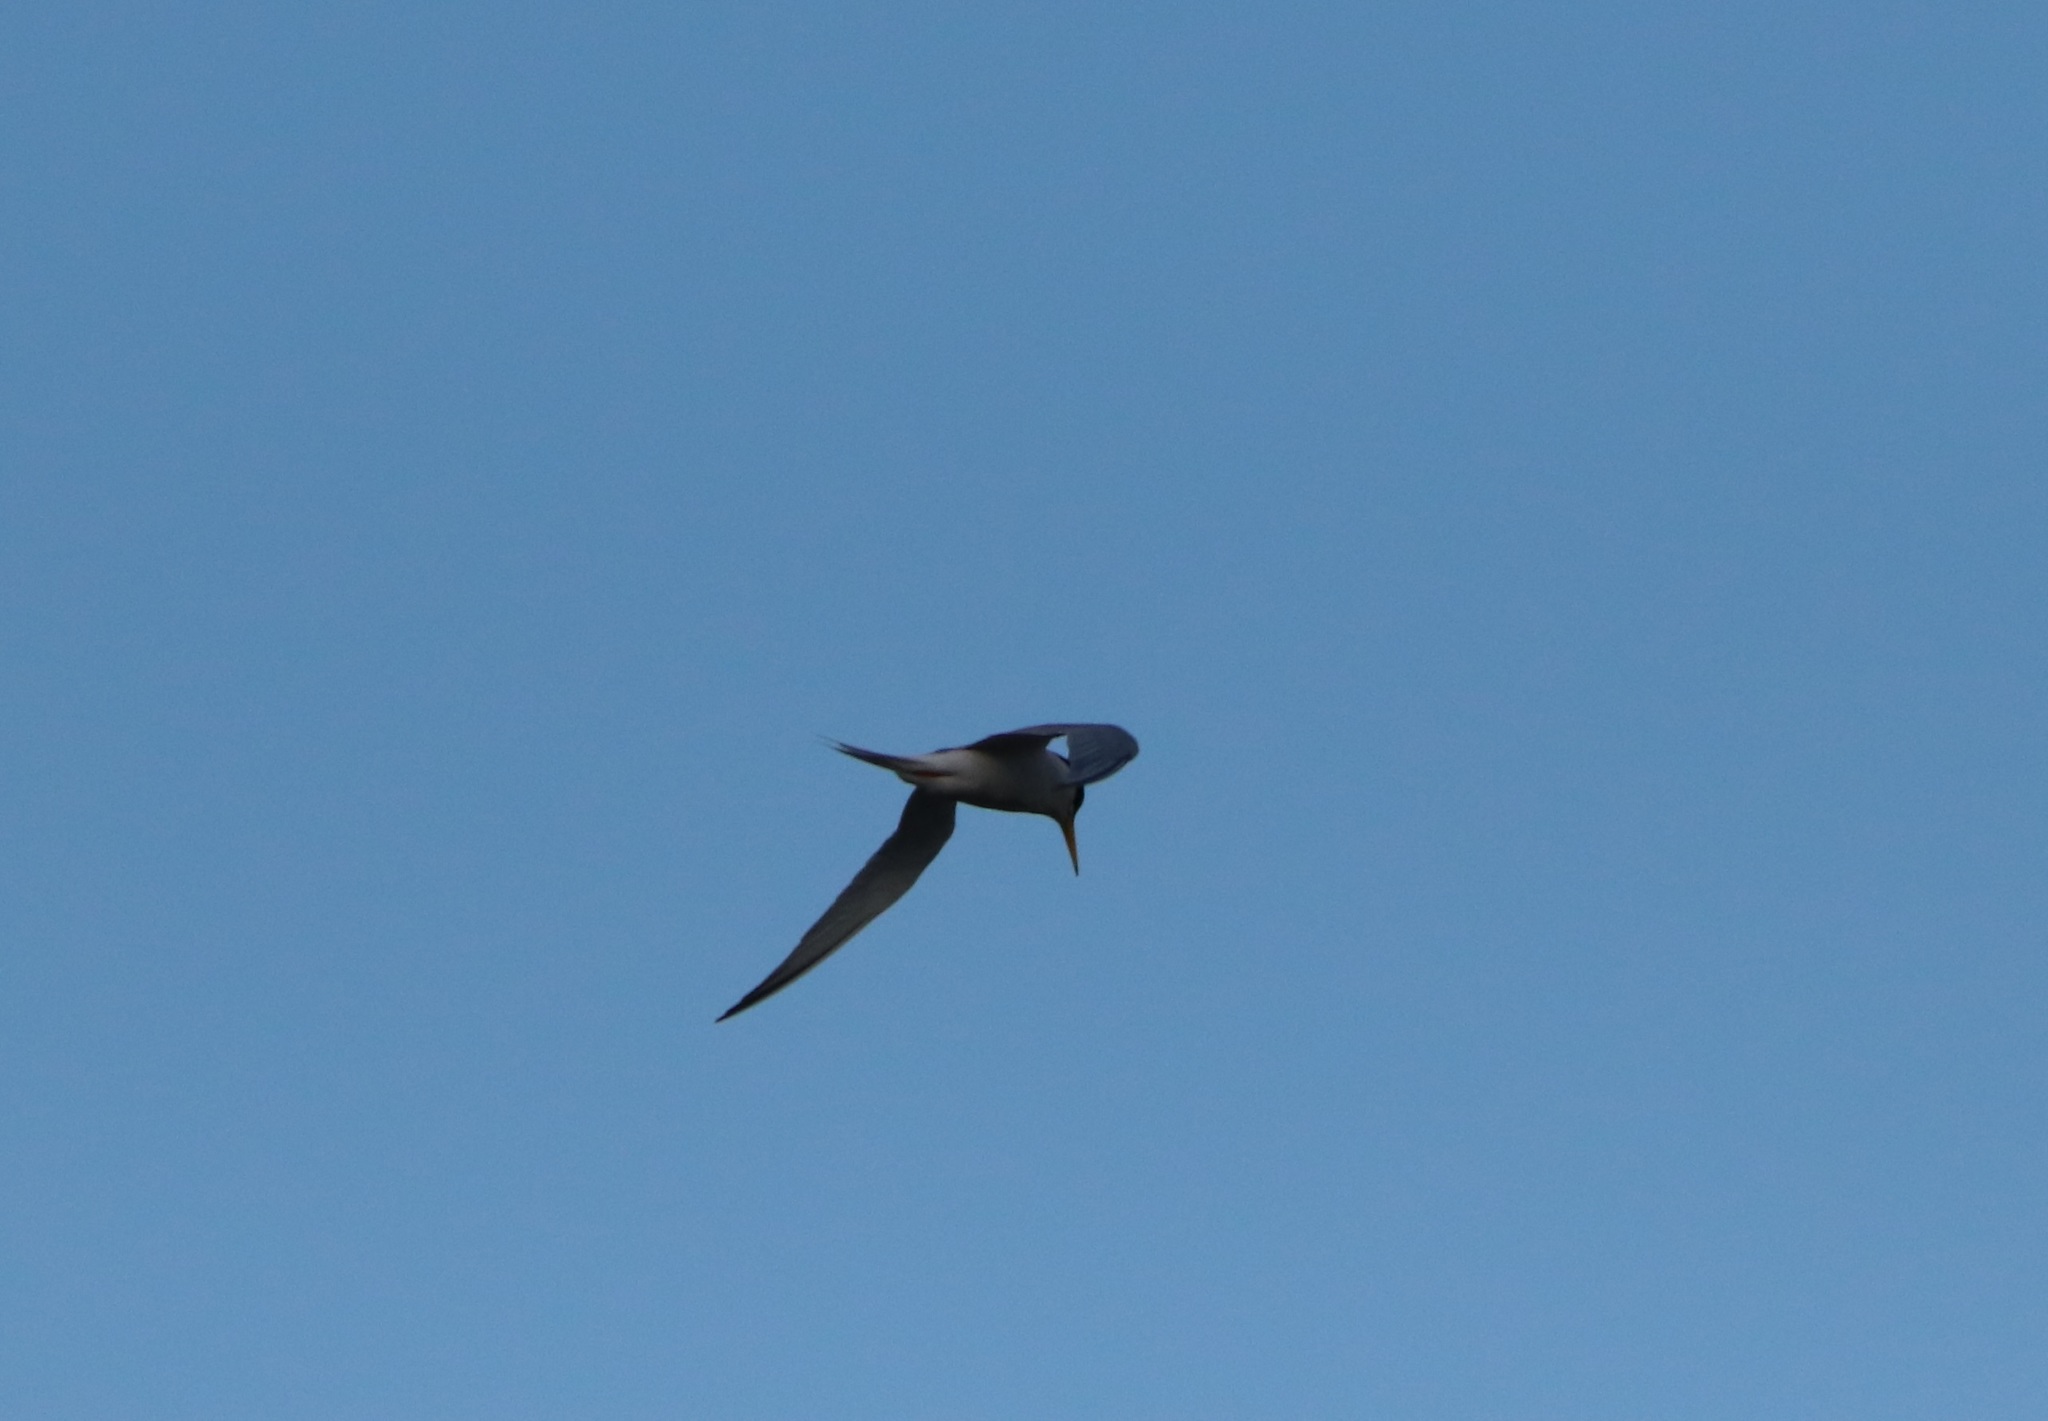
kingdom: Animalia
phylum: Chordata
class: Aves
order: Charadriiformes
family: Laridae
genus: Sternula
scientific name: Sternula albifrons
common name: Little tern
